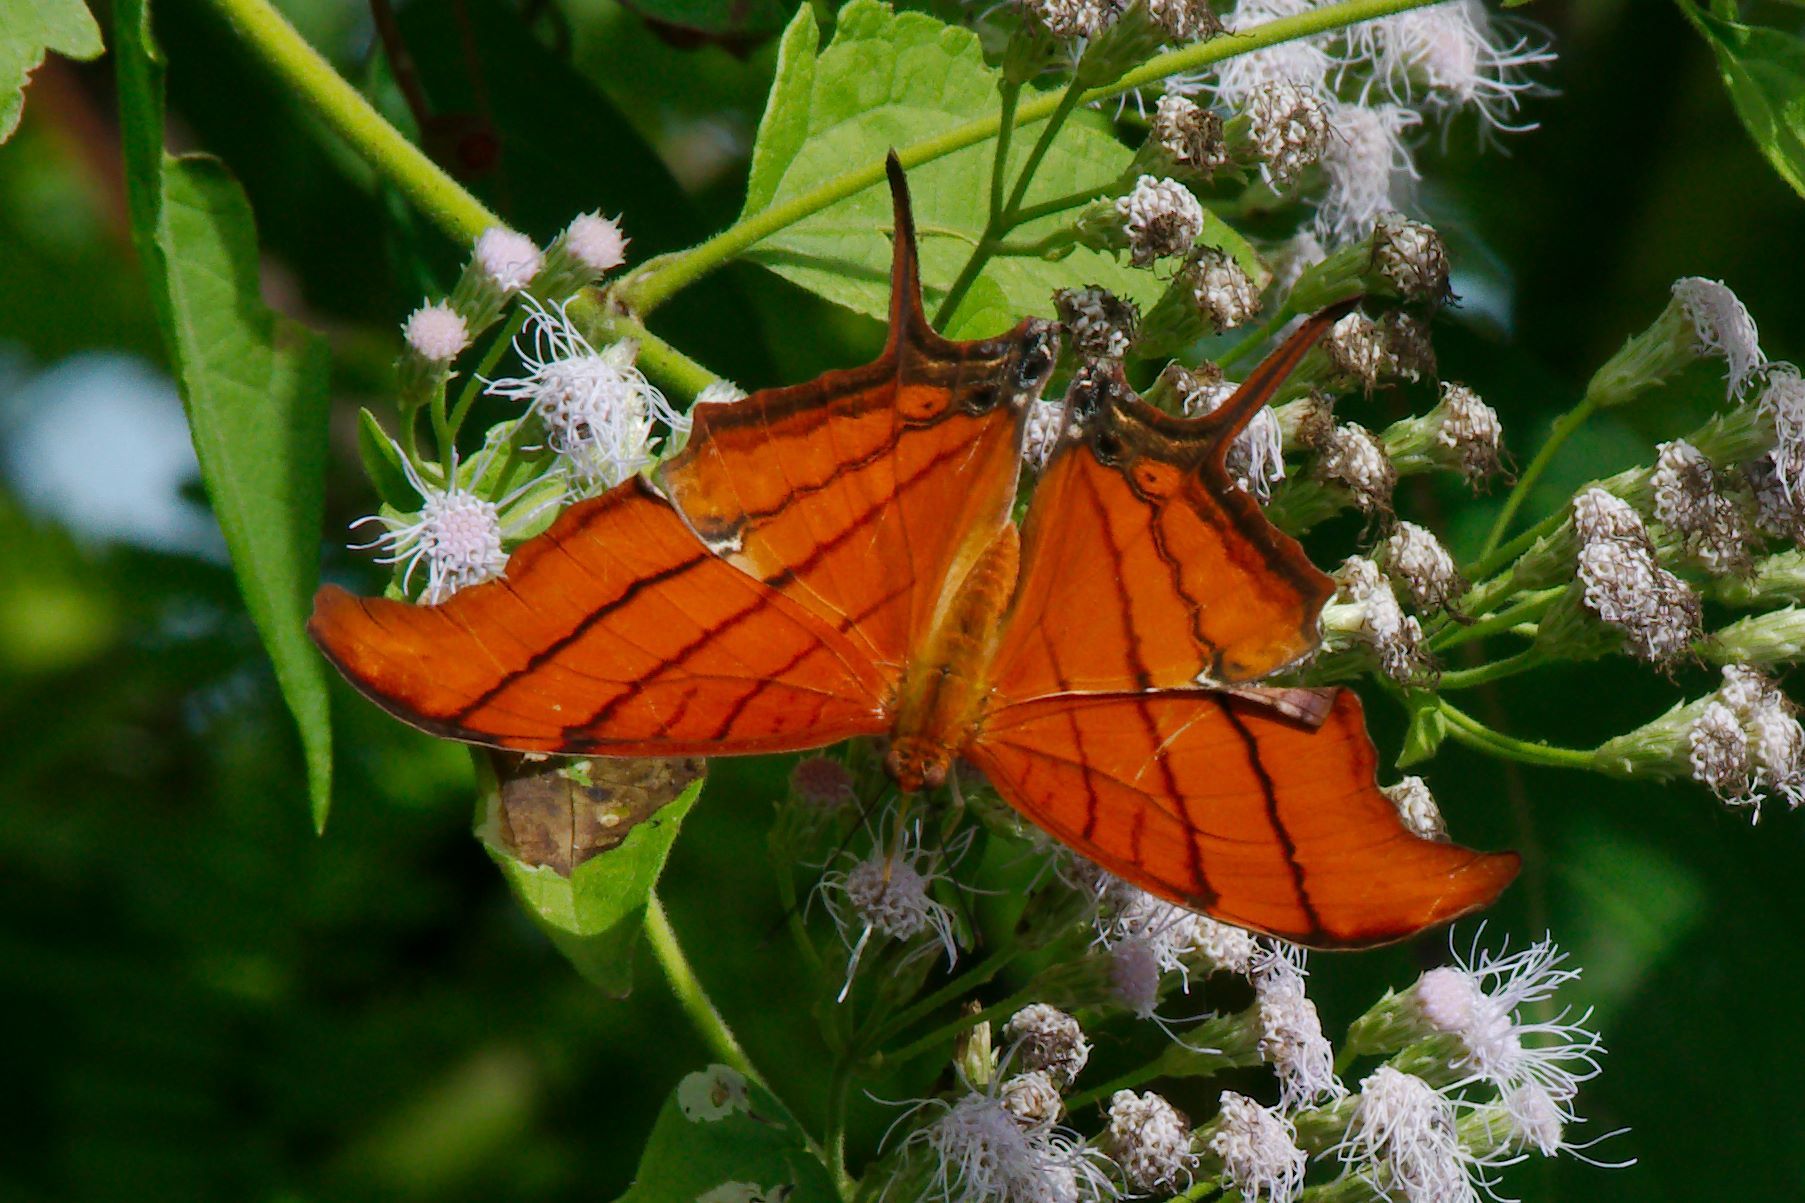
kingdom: Animalia
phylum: Arthropoda
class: Insecta
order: Lepidoptera
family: Nymphalidae
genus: Marpesia
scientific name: Marpesia petreus
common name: Red dagger wing
